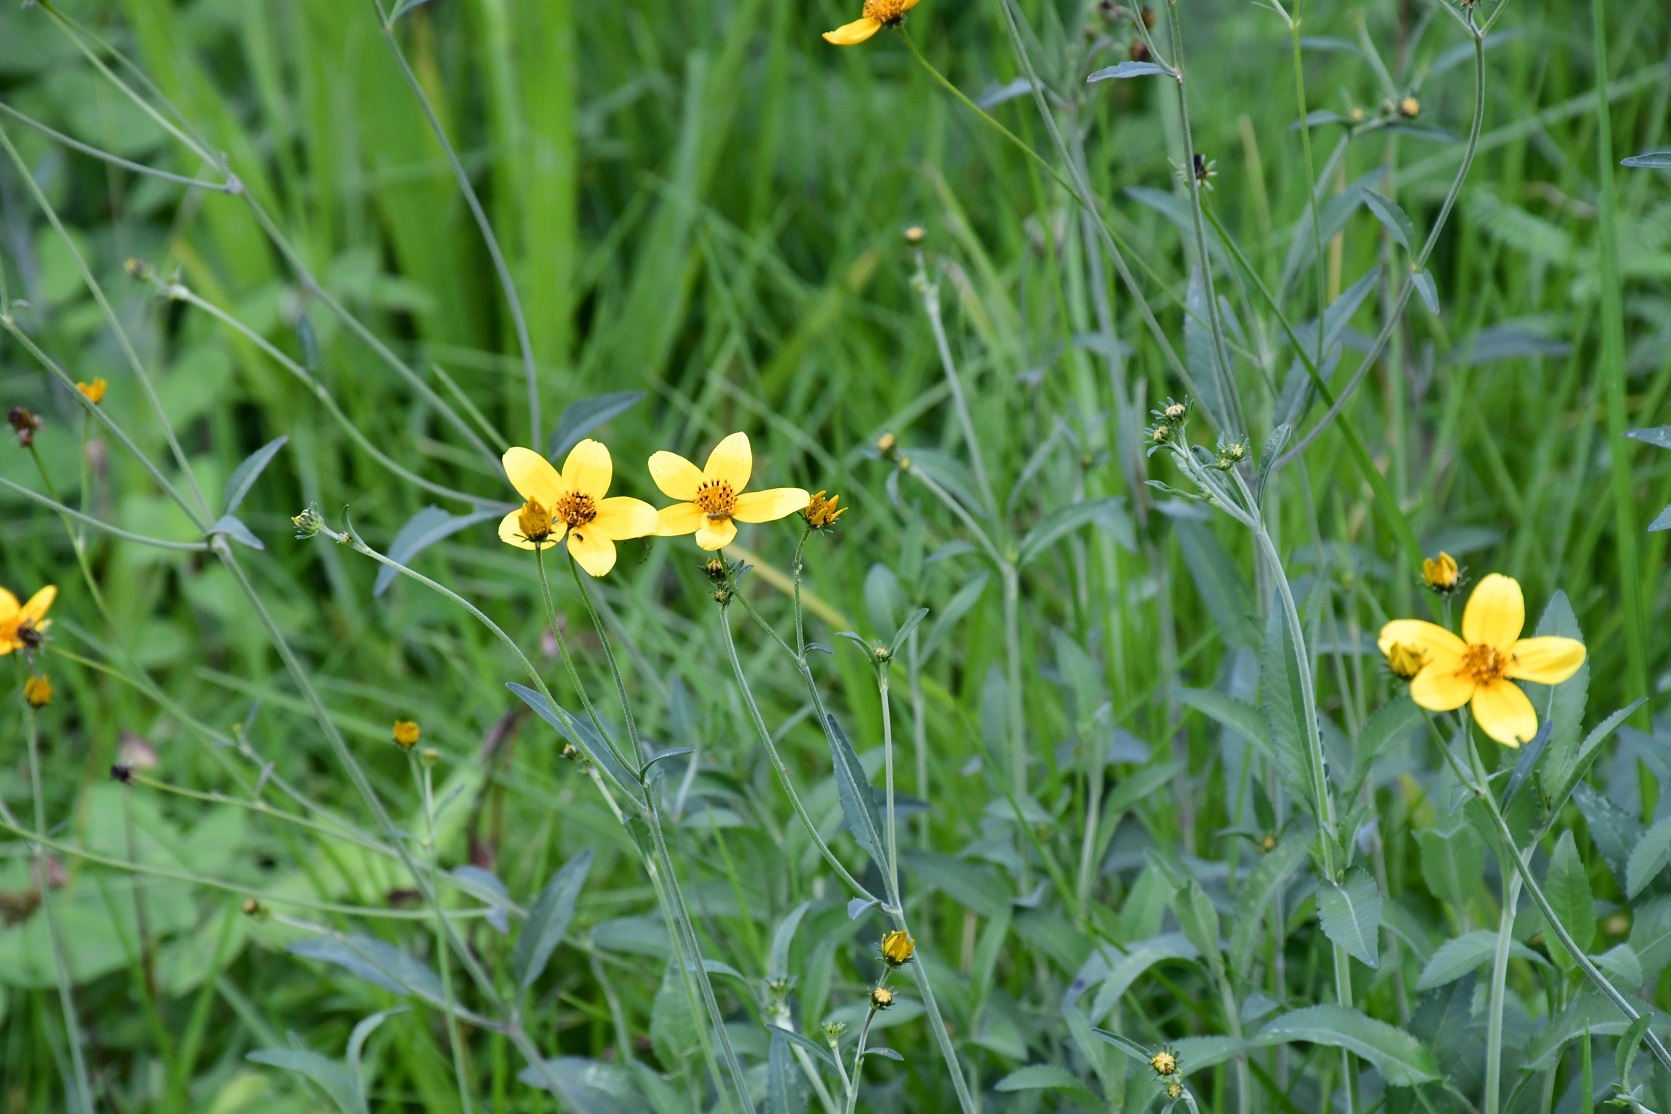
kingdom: Plantae
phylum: Tracheophyta
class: Magnoliopsida
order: Asterales
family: Asteraceae
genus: Bidens
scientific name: Bidens aurea
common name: Arizona beggar-ticks
